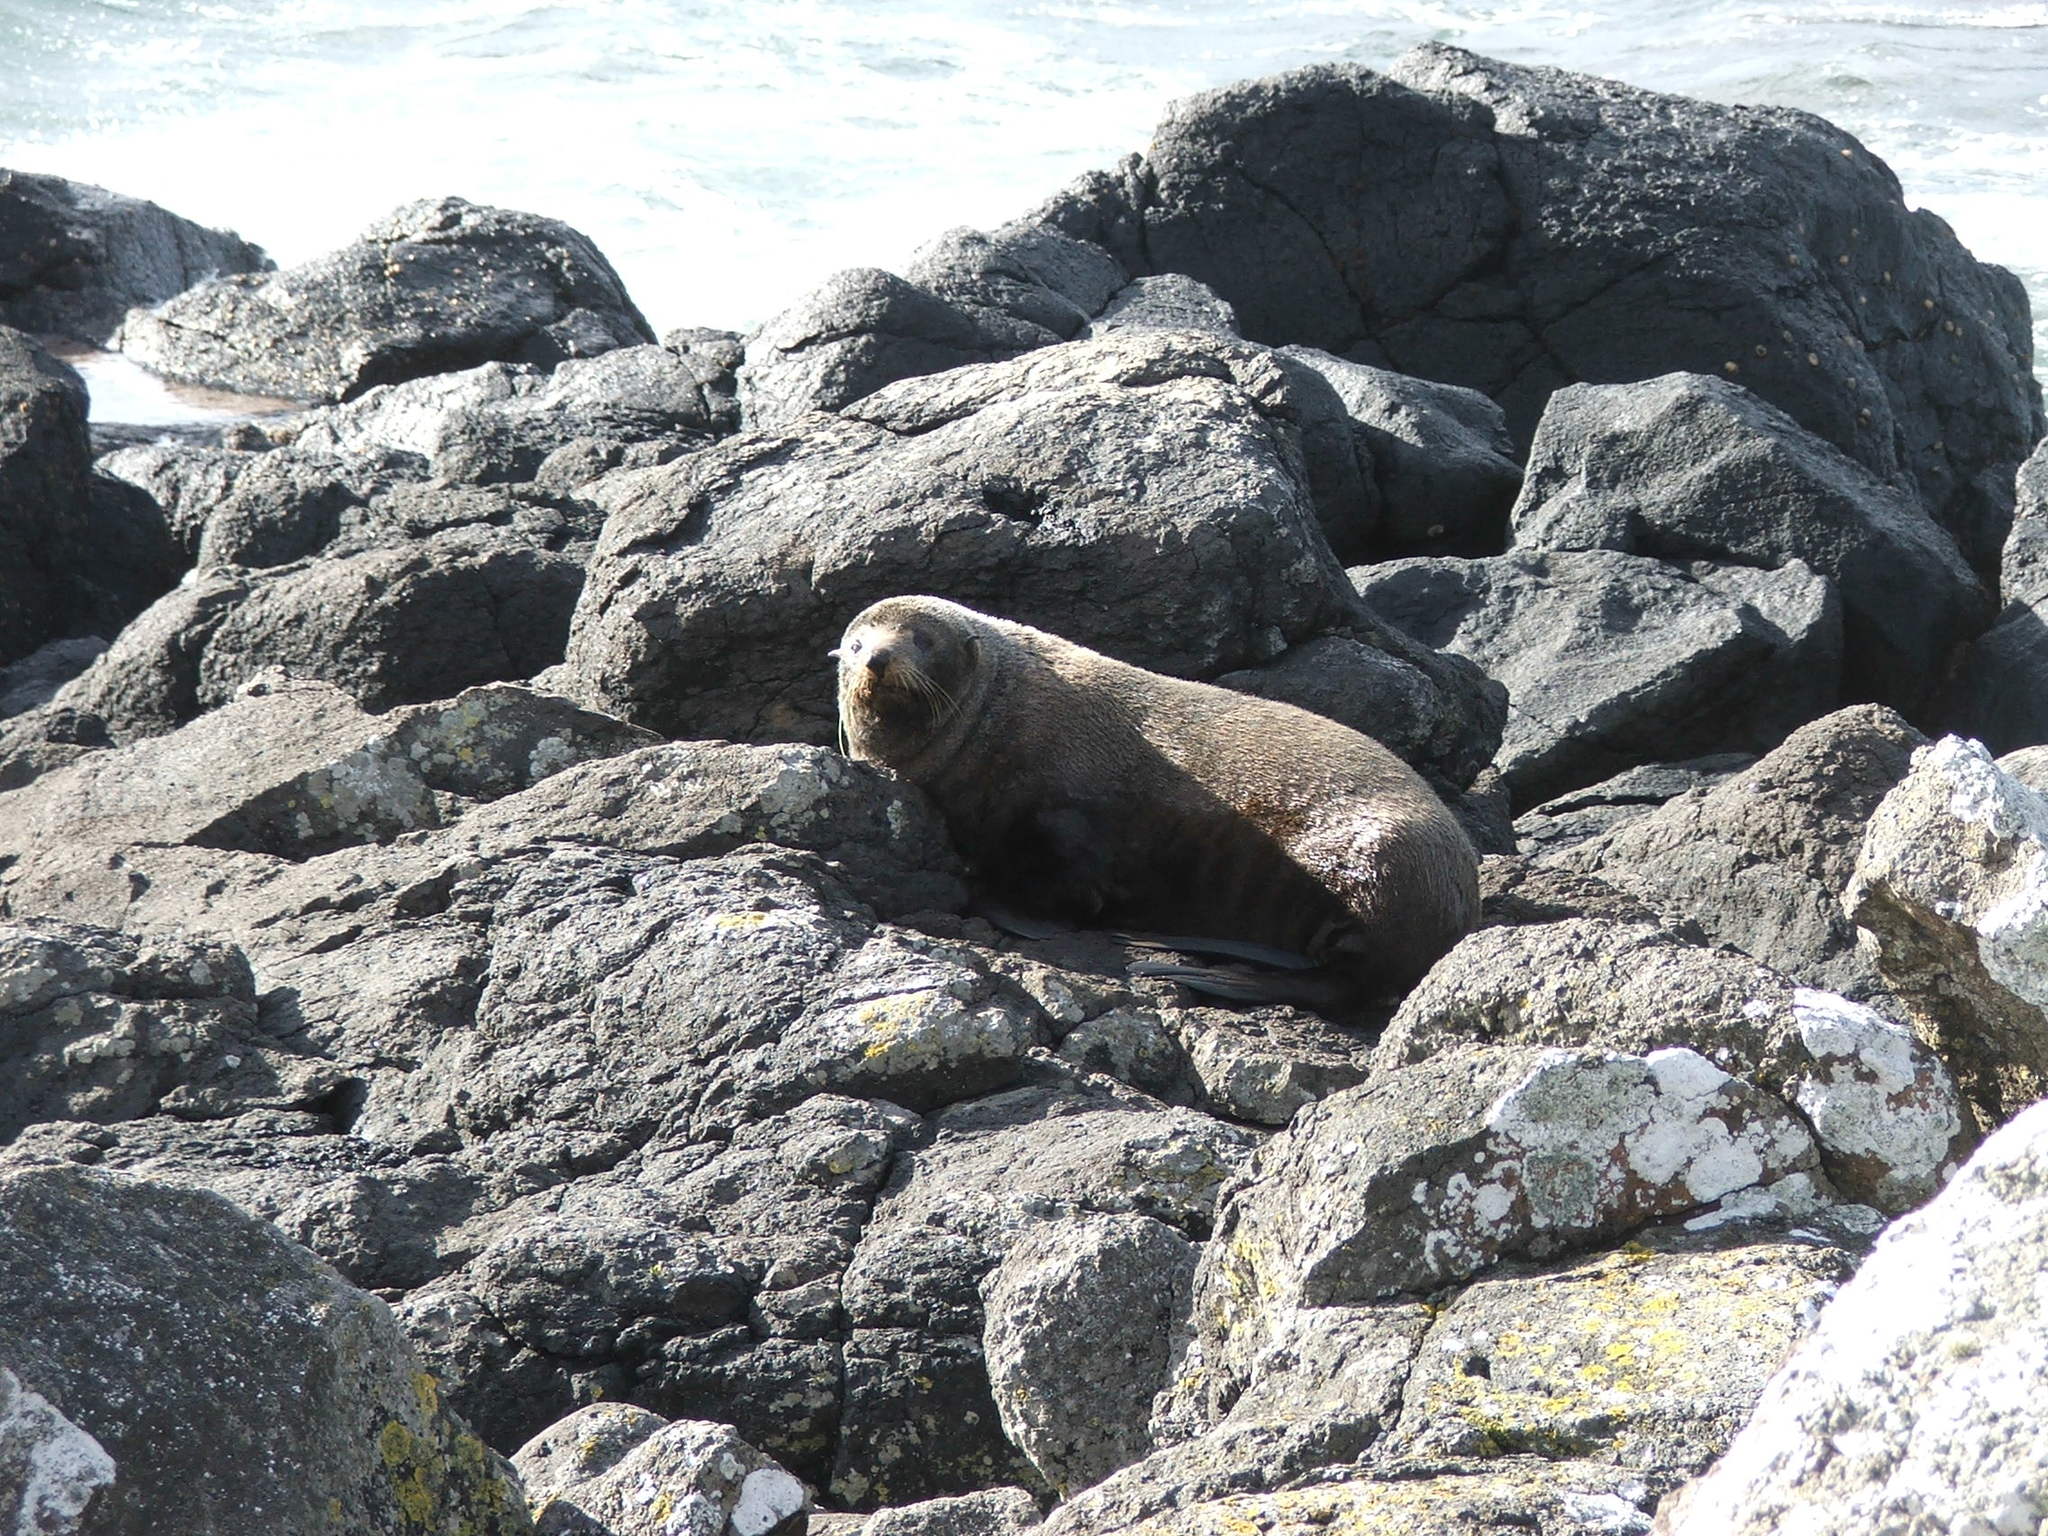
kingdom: Animalia
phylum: Chordata
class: Mammalia
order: Carnivora
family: Otariidae
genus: Arctocephalus
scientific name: Arctocephalus forsteri
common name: New zealand fur seal
